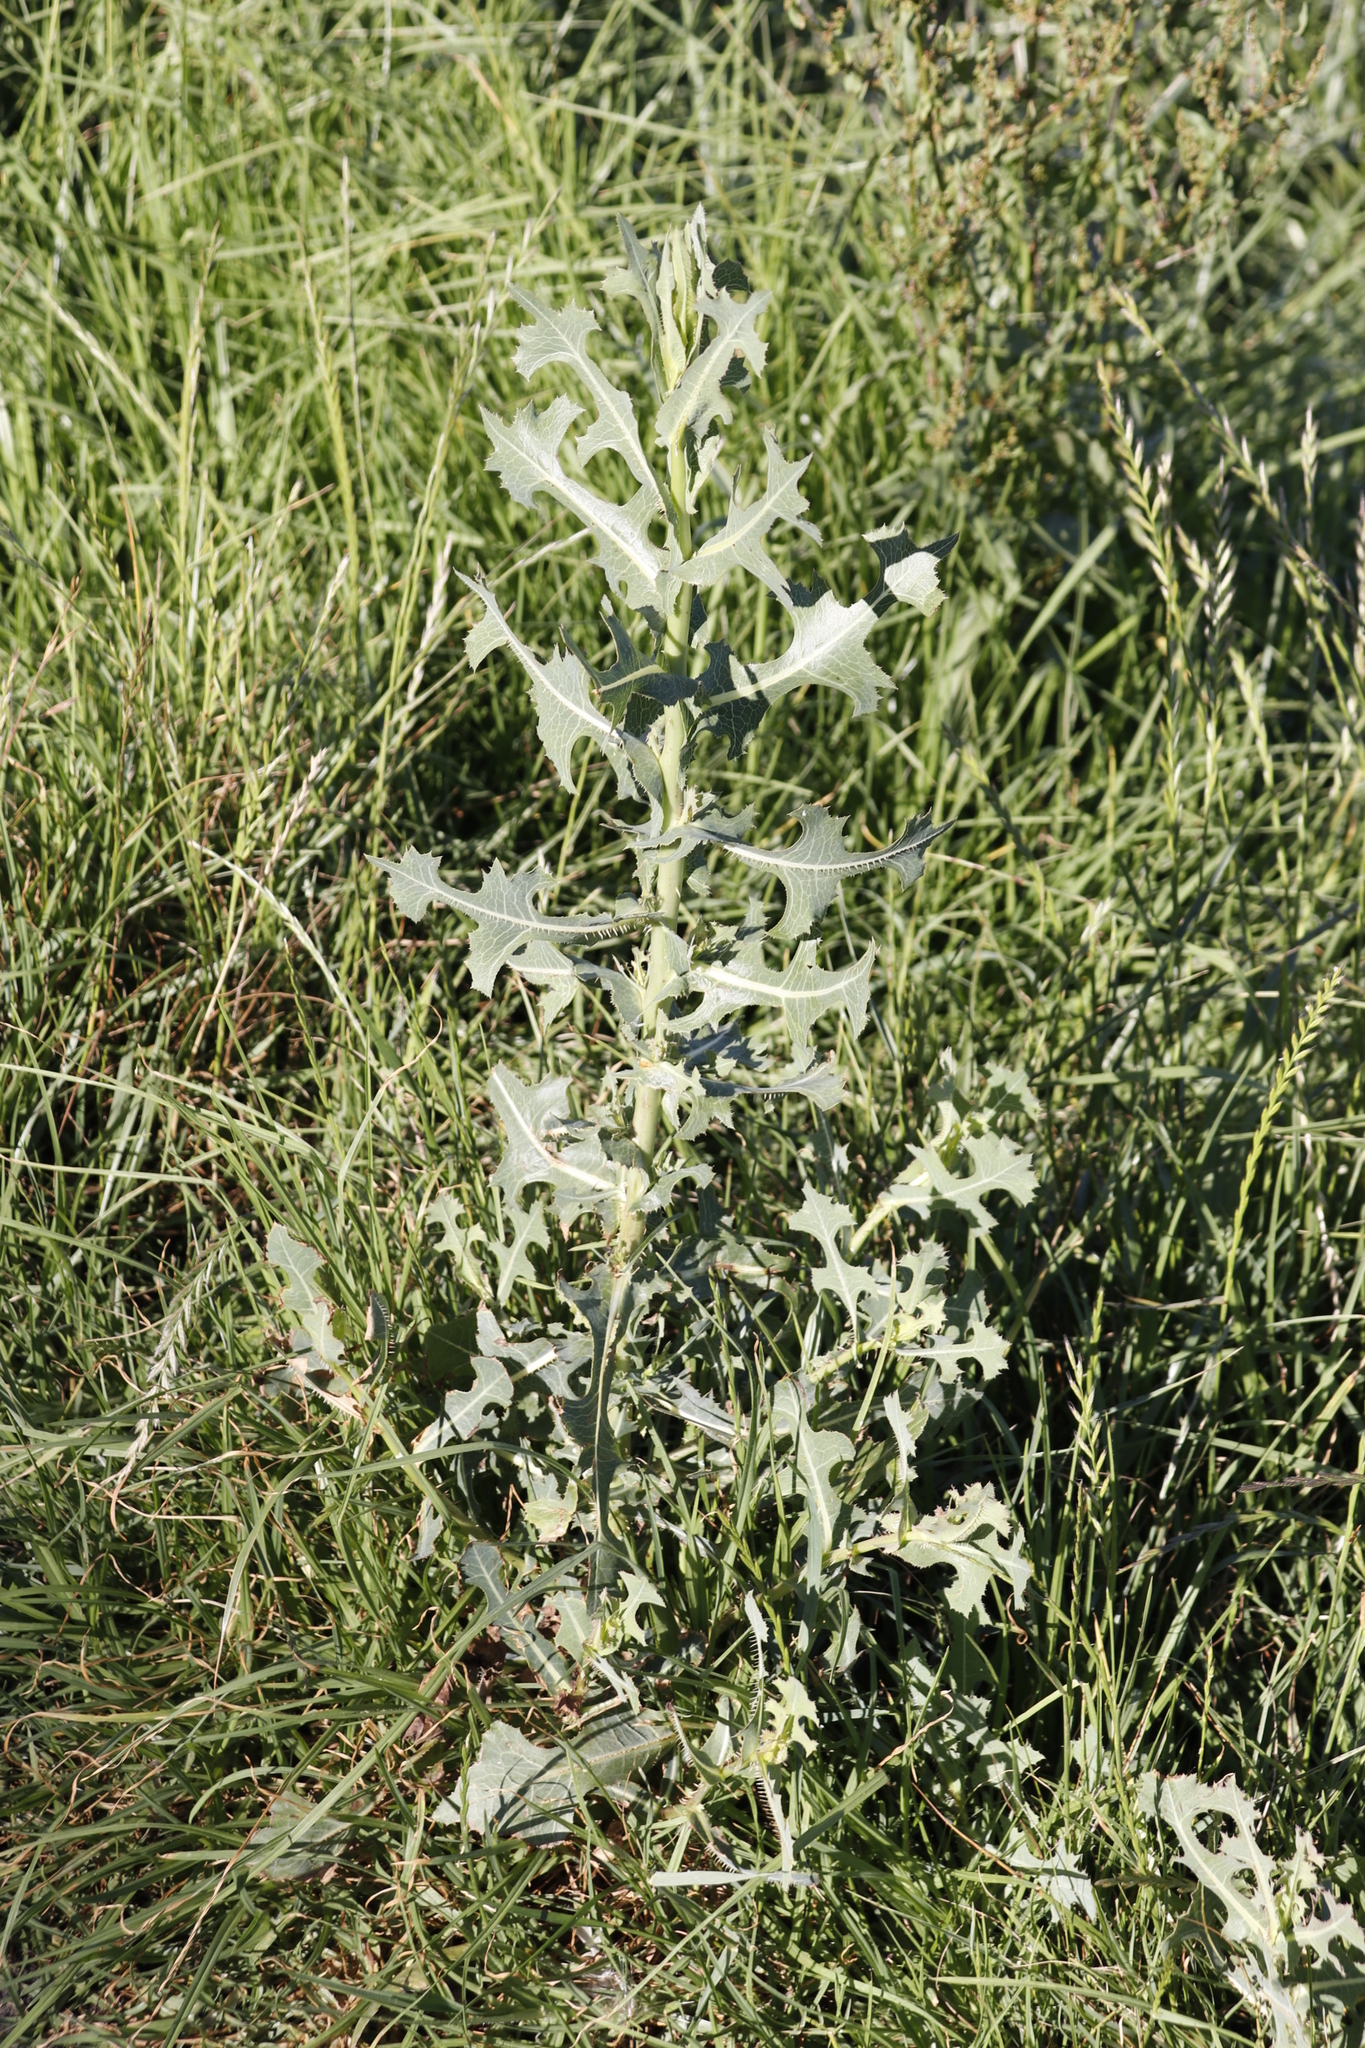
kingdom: Plantae
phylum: Tracheophyta
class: Magnoliopsida
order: Asterales
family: Asteraceae
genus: Lactuca
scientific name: Lactuca serriola
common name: Prickly lettuce
